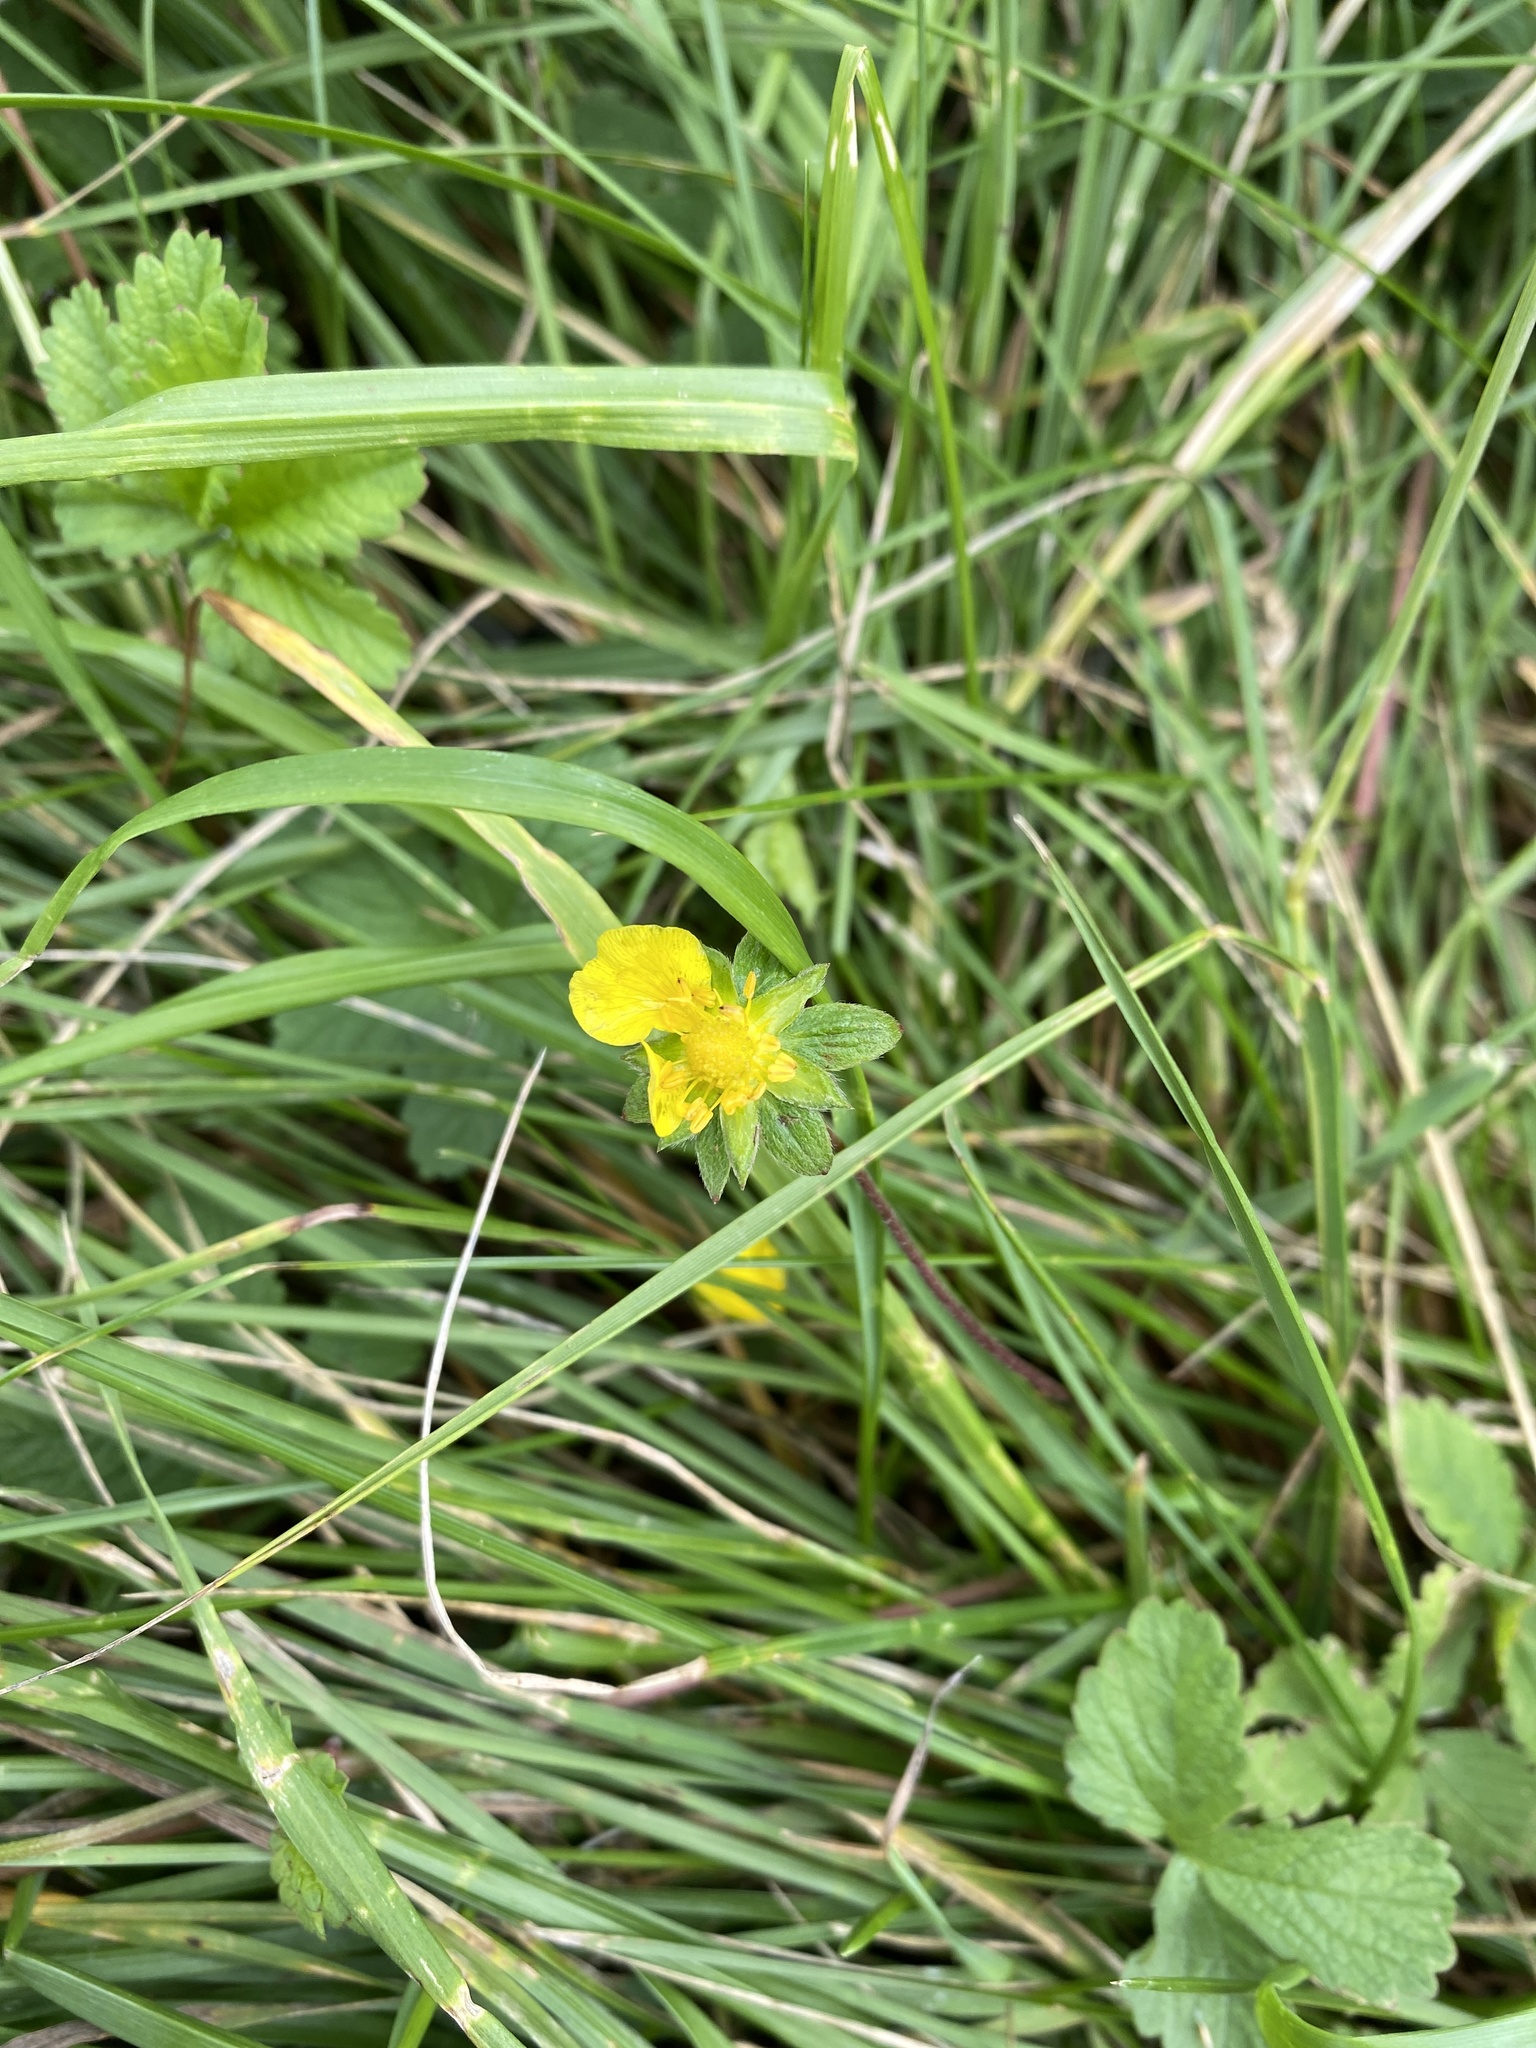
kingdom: Plantae
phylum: Tracheophyta
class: Magnoliopsida
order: Rosales
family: Rosaceae
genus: Potentilla
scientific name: Potentilla reptans
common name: Creeping cinquefoil
